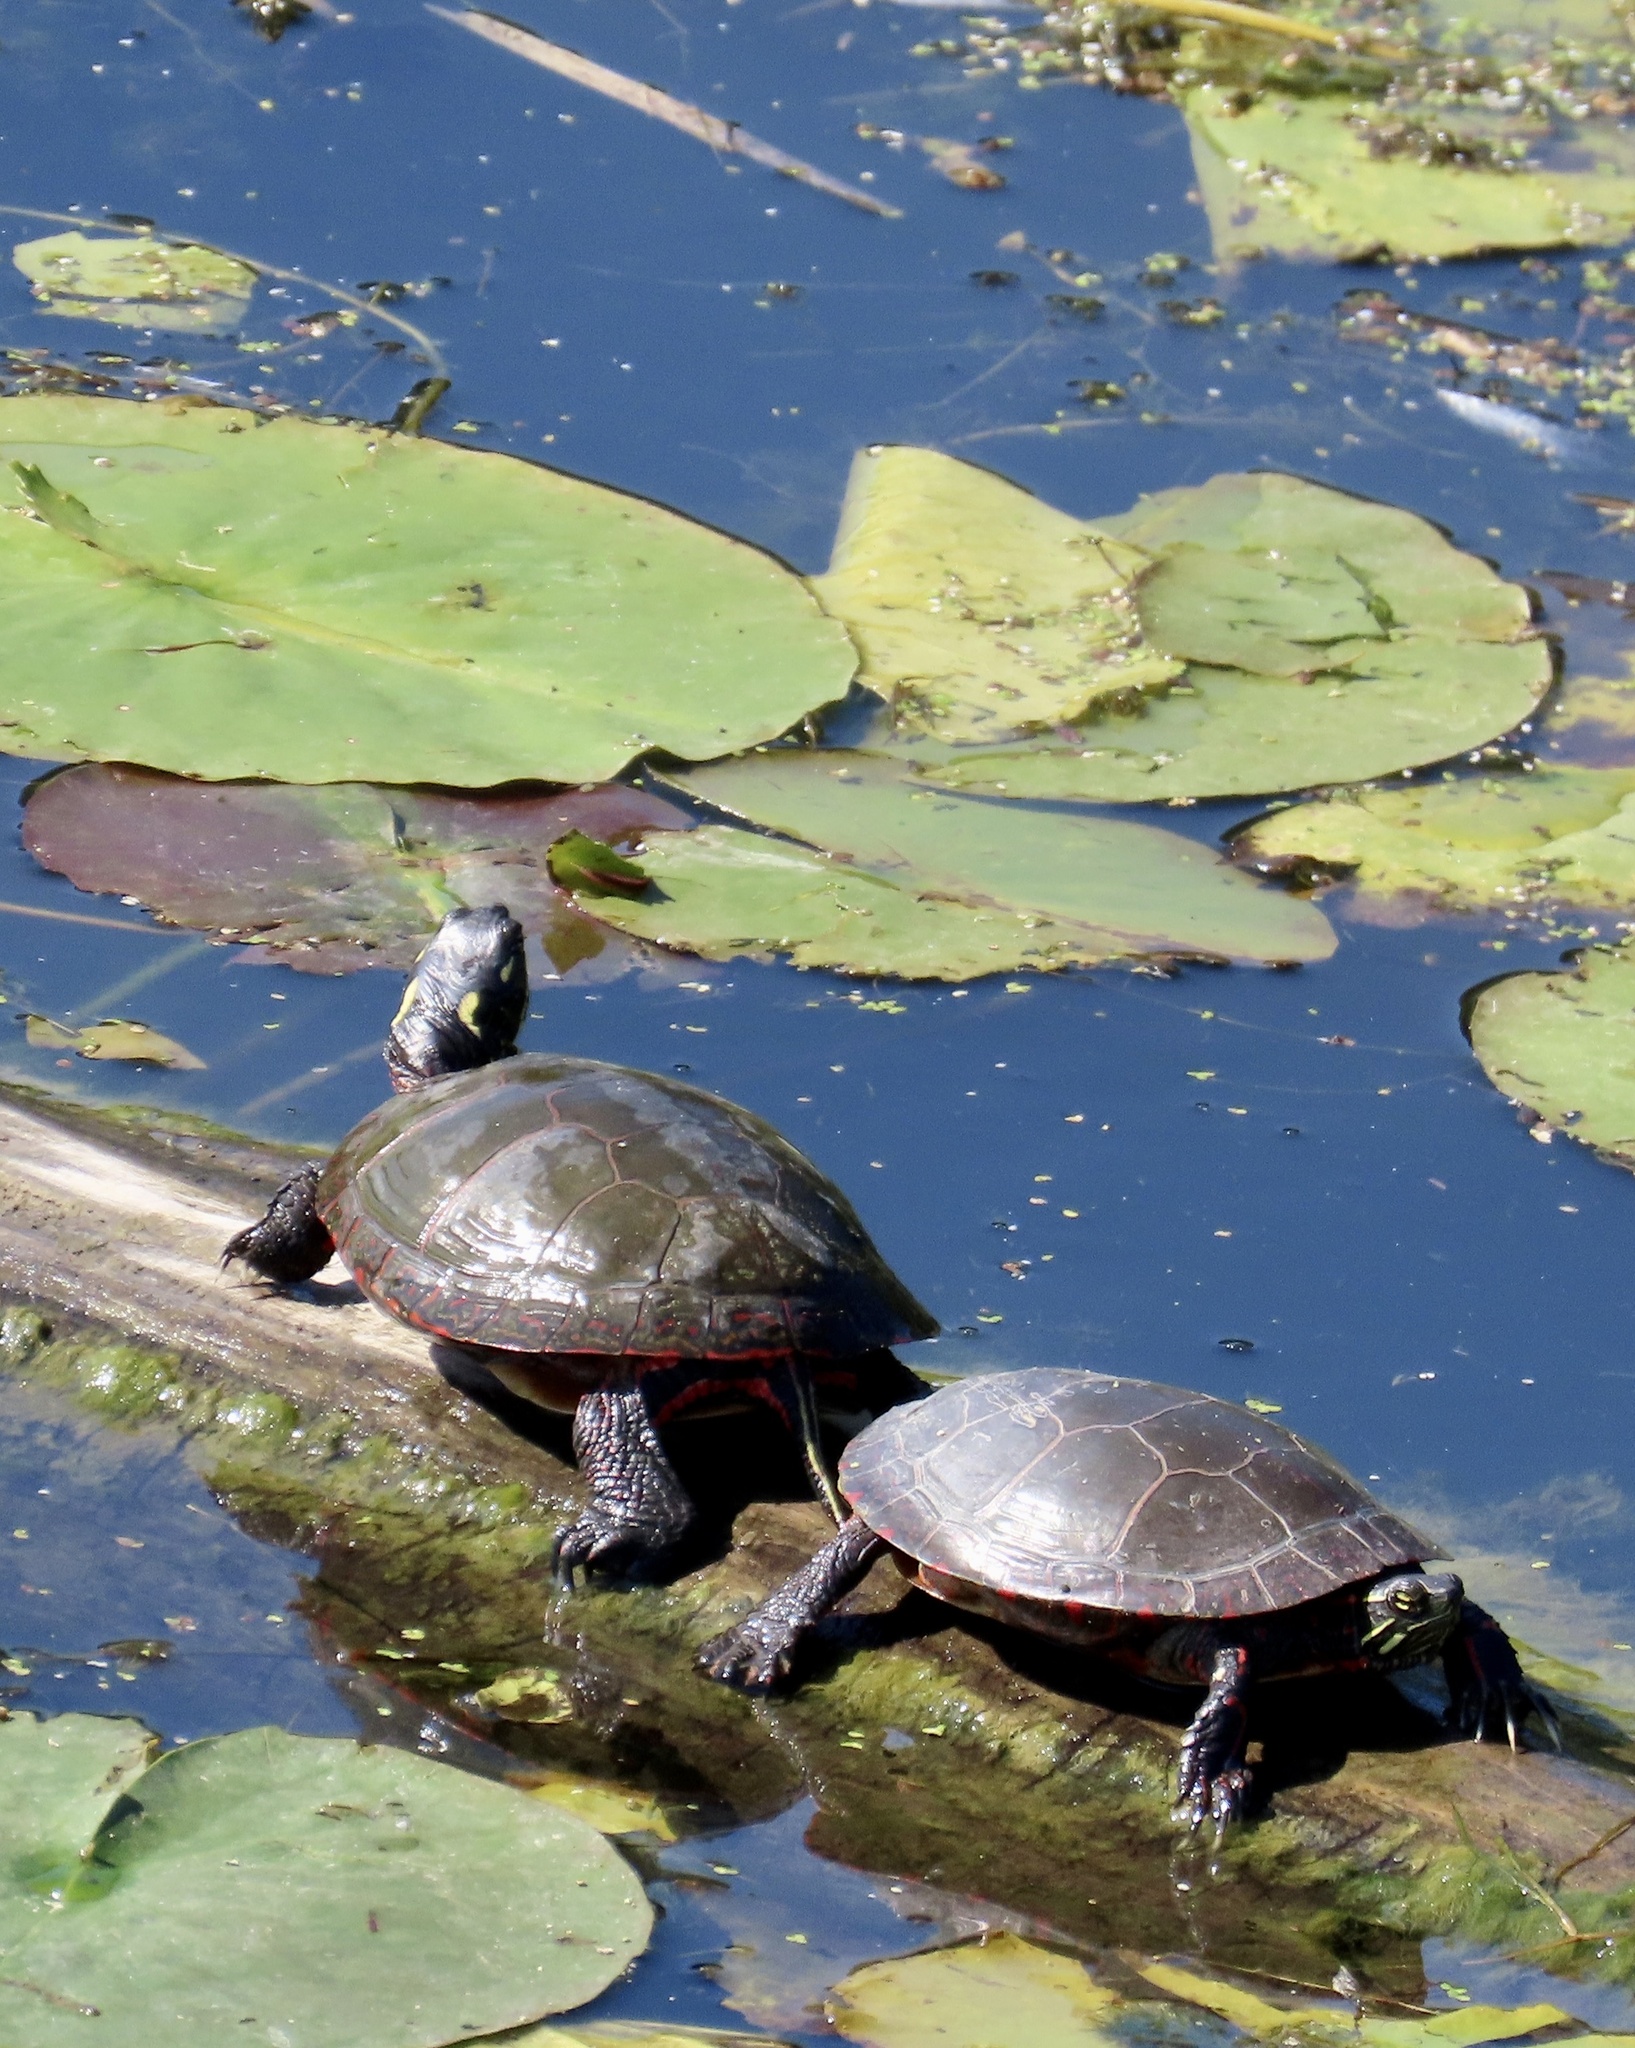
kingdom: Animalia
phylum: Chordata
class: Testudines
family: Emydidae
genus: Chrysemys
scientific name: Chrysemys picta
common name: Painted turtle
